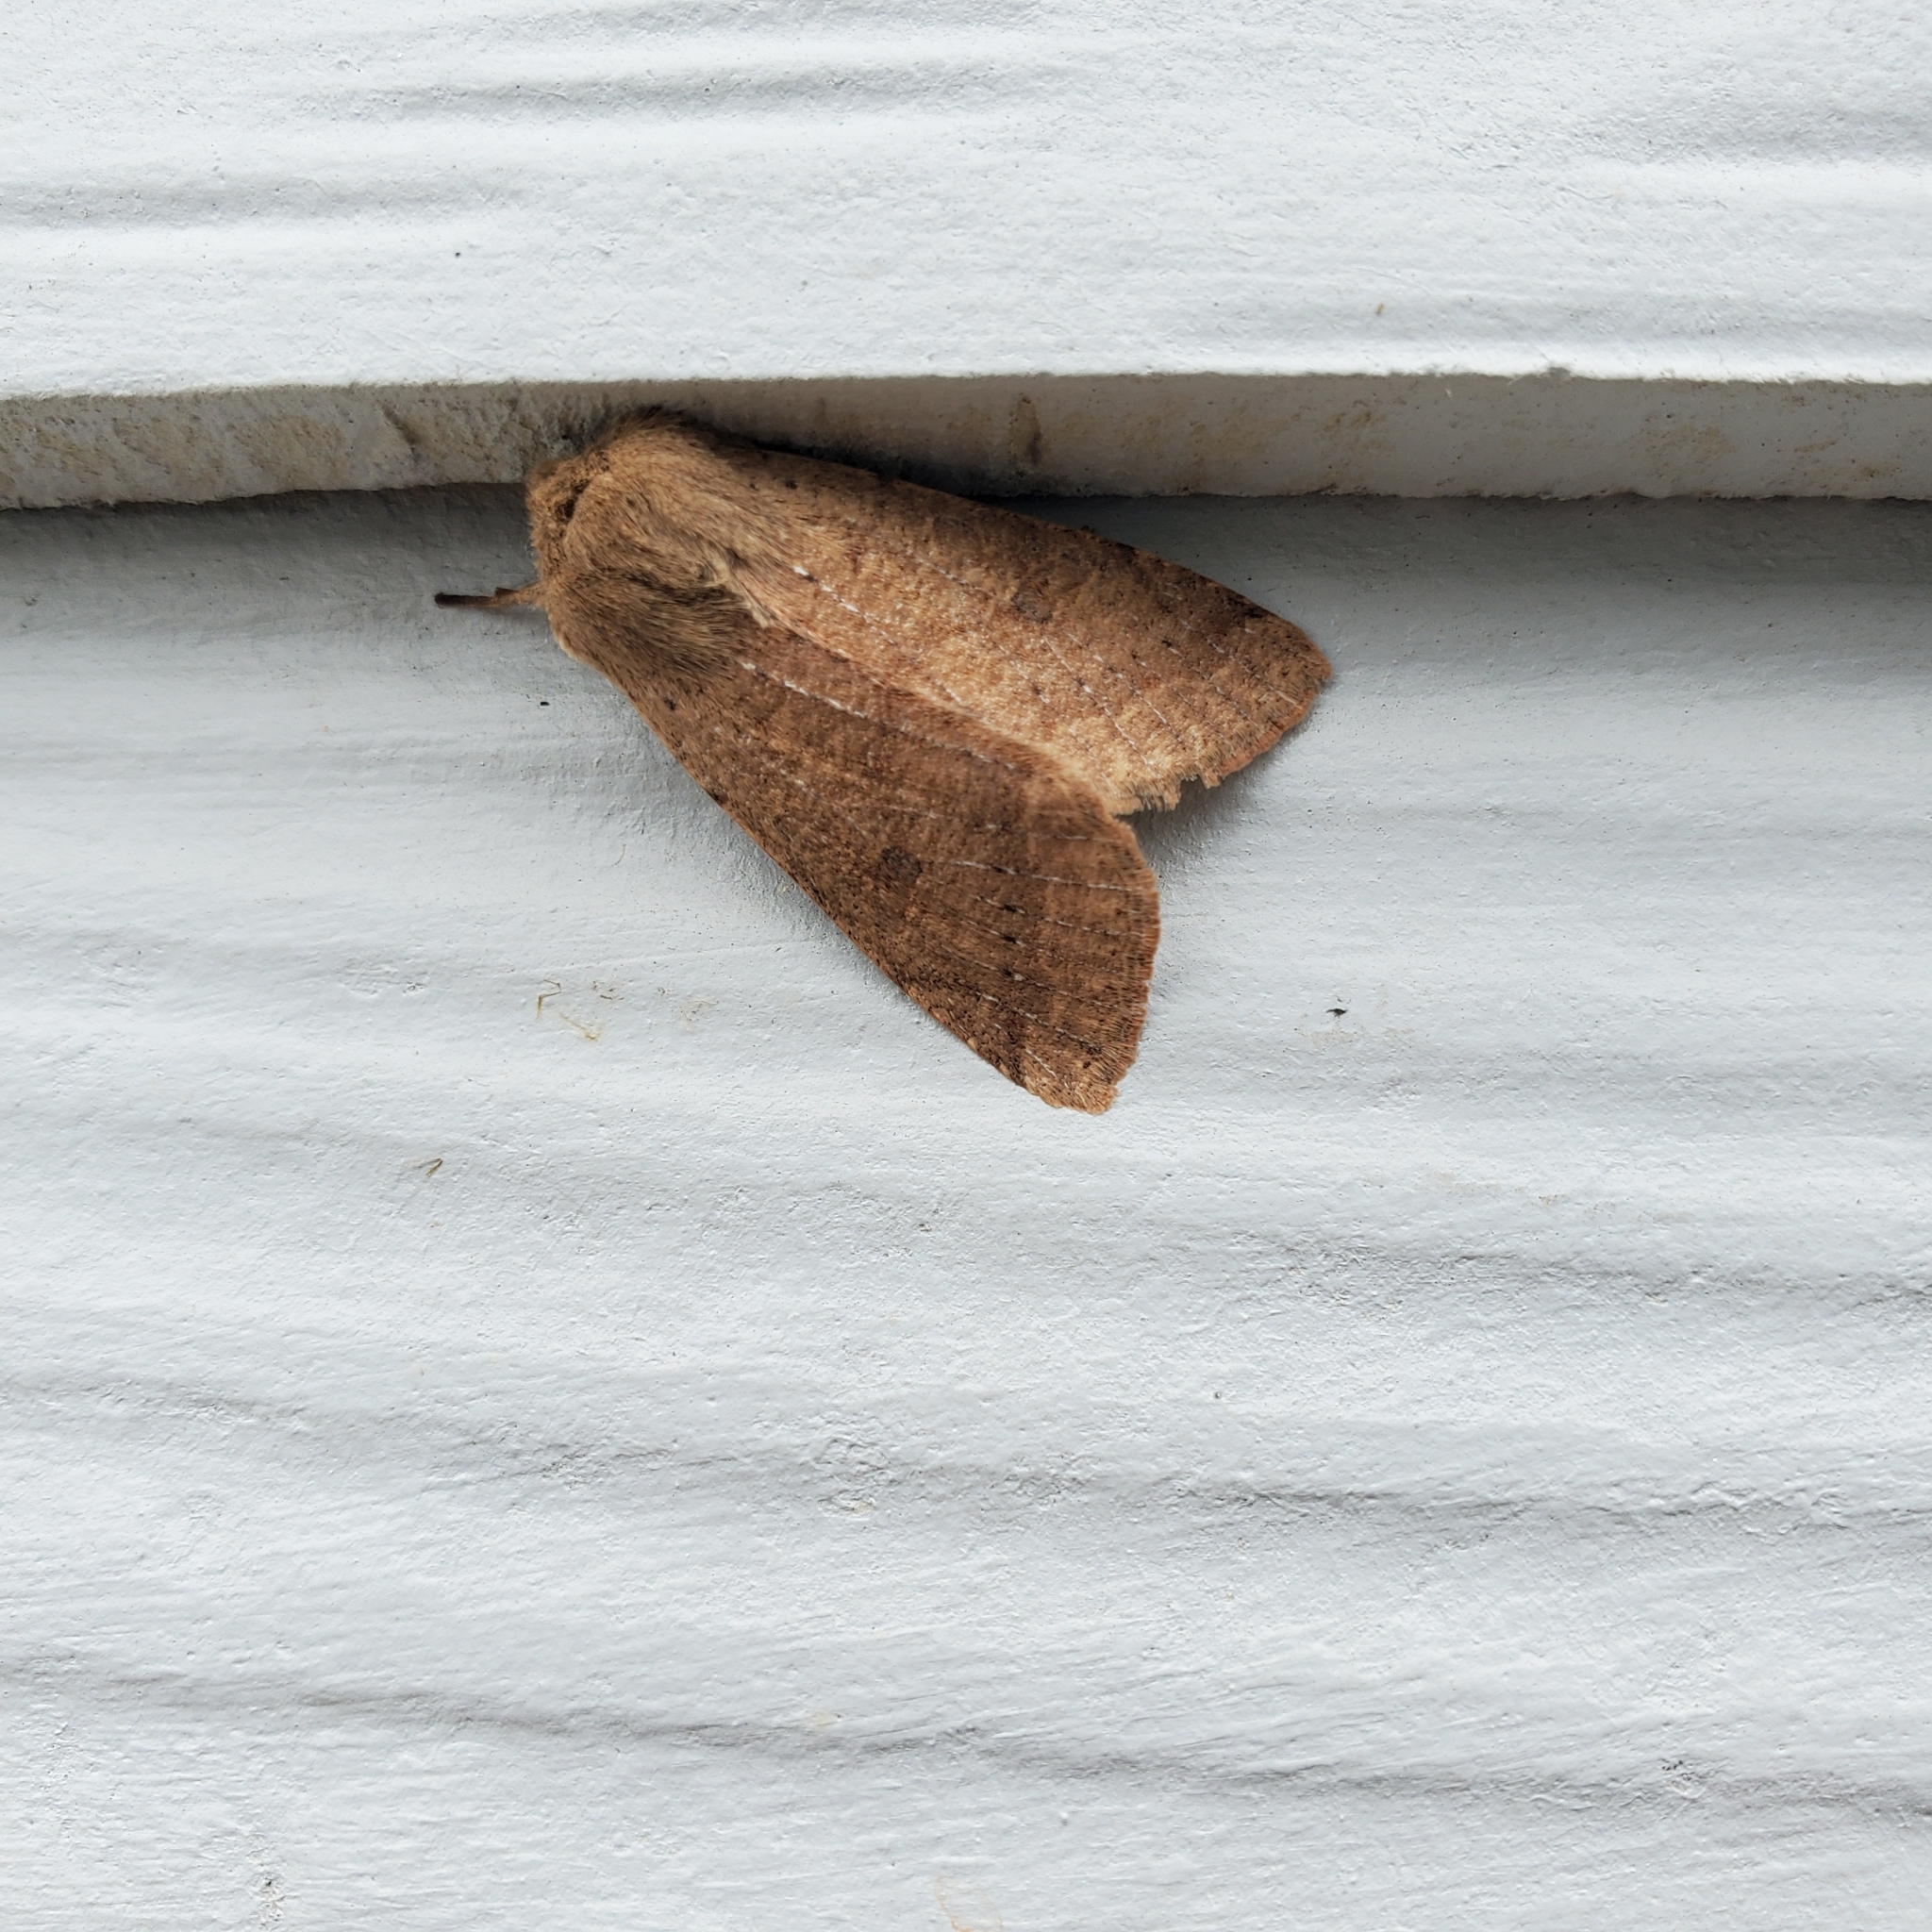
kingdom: Animalia
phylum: Arthropoda
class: Insecta
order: Lepidoptera
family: Noctuidae
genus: Orthosia
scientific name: Orthosia pacifica
